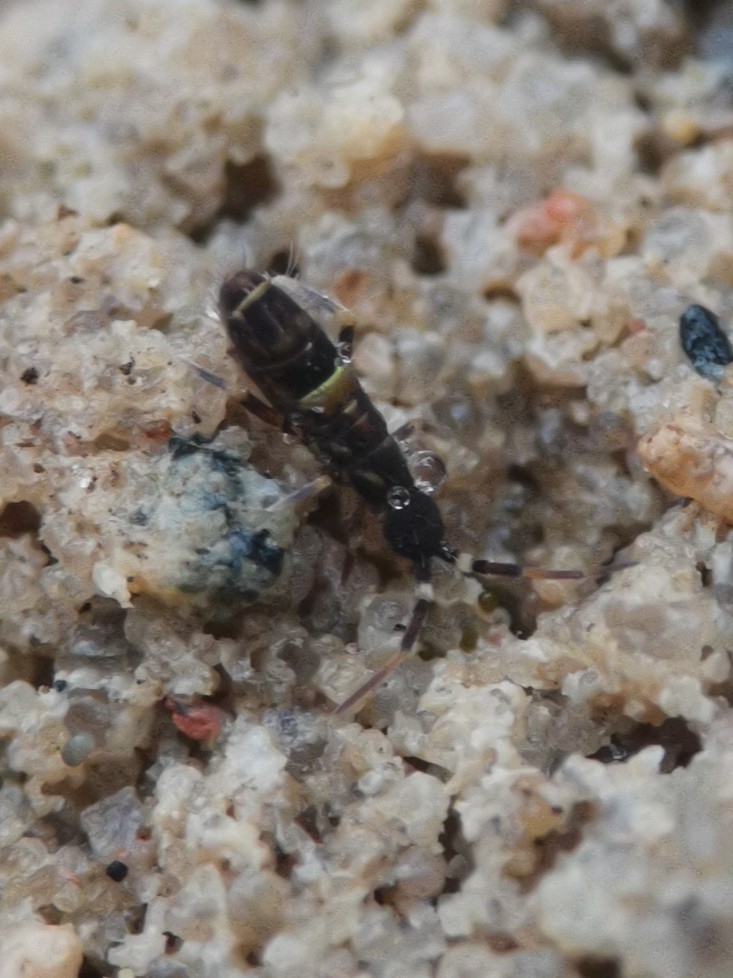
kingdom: Animalia
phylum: Arthropoda
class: Collembola
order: Entomobryomorpha
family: Orchesellidae
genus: Orchesella
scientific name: Orchesella cincta
